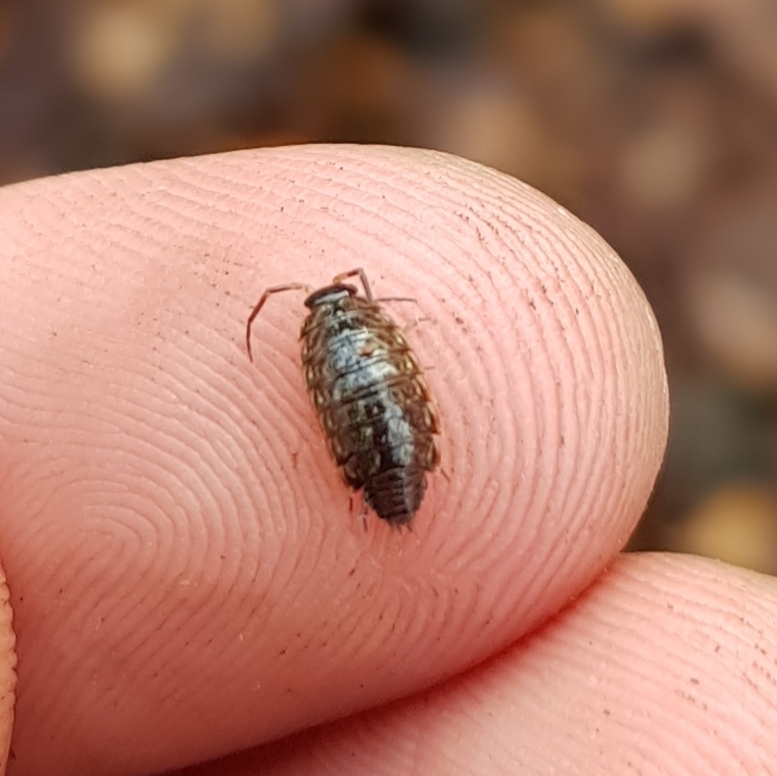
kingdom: Animalia
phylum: Arthropoda
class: Malacostraca
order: Isopoda
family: Philosciidae
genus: Philoscia
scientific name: Philoscia muscorum
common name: Common striped woodlouse
